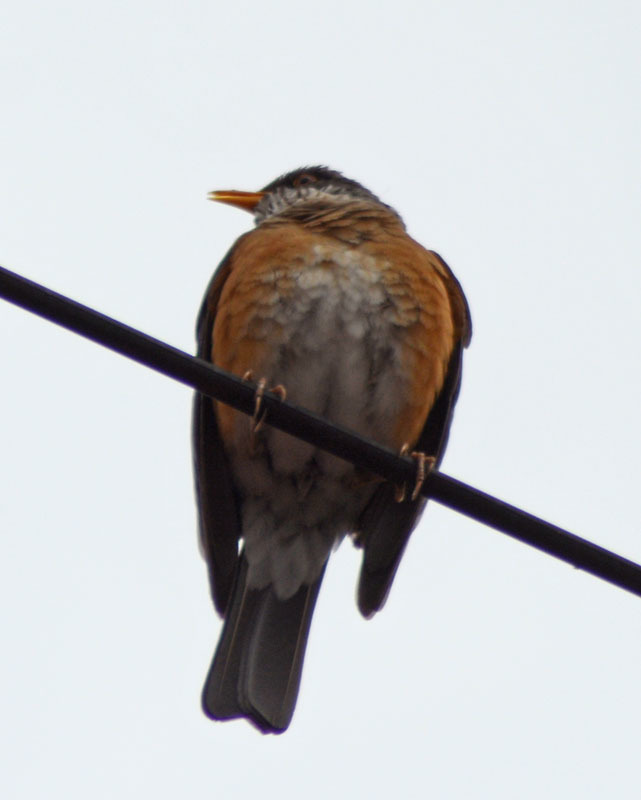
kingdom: Animalia
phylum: Chordata
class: Aves
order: Passeriformes
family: Turdidae
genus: Turdus
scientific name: Turdus rufopalliatus
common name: Rufous-backed robin
